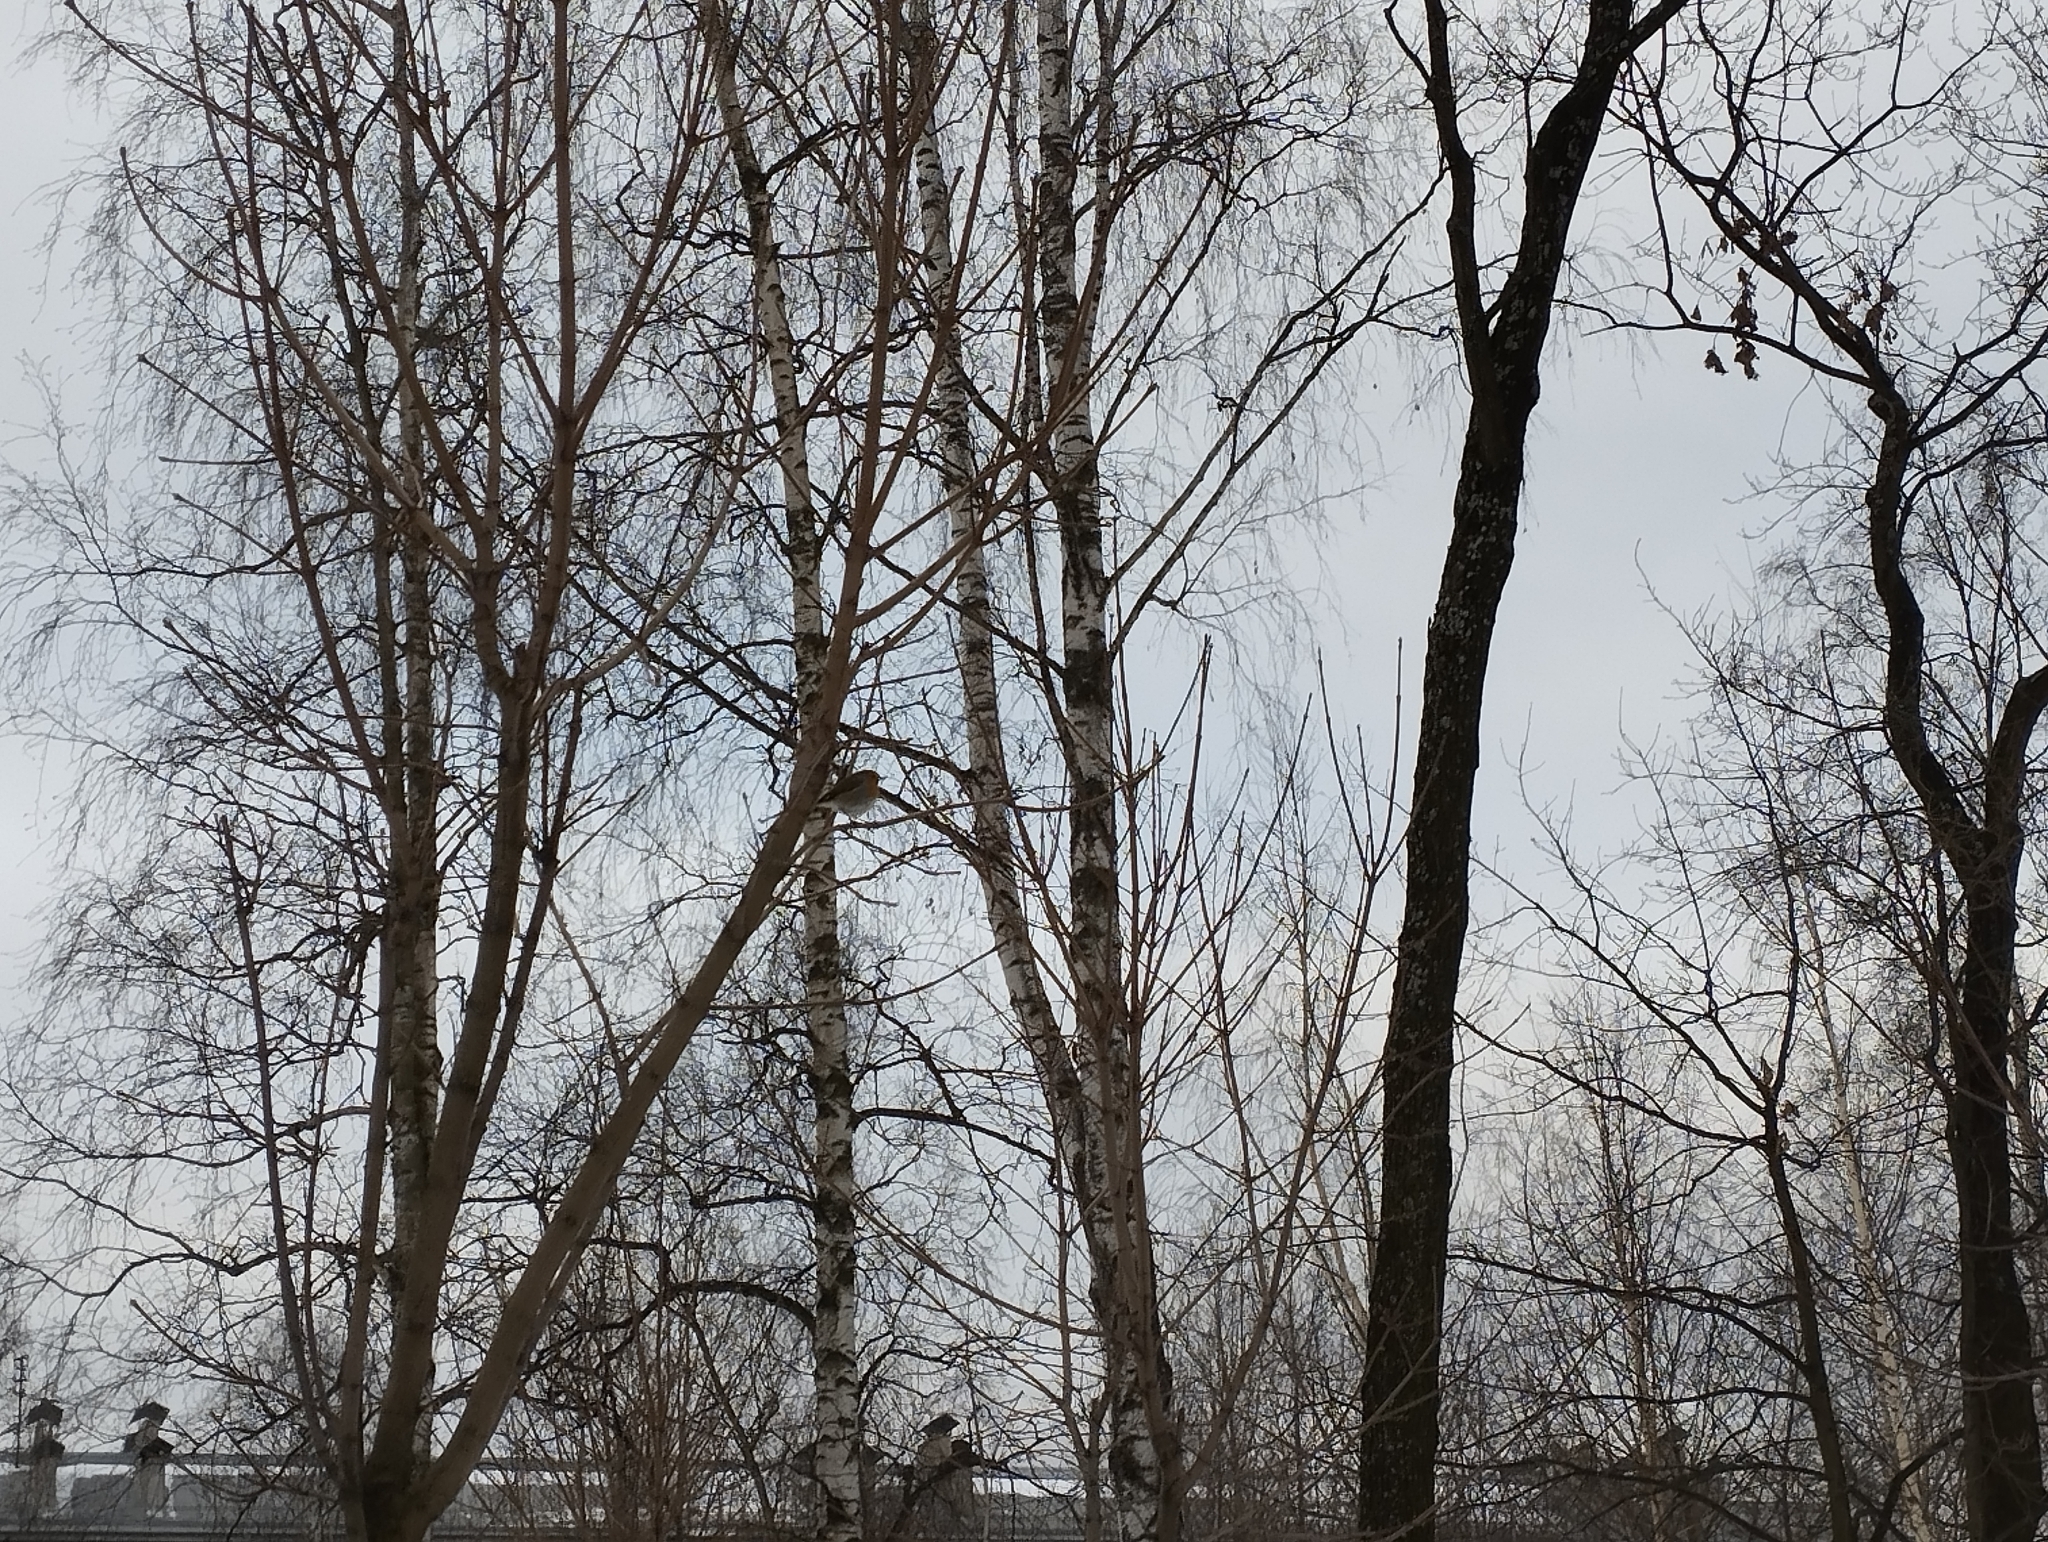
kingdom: Animalia
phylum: Chordata
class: Aves
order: Passeriformes
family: Muscicapidae
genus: Erithacus
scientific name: Erithacus rubecula
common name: European robin
